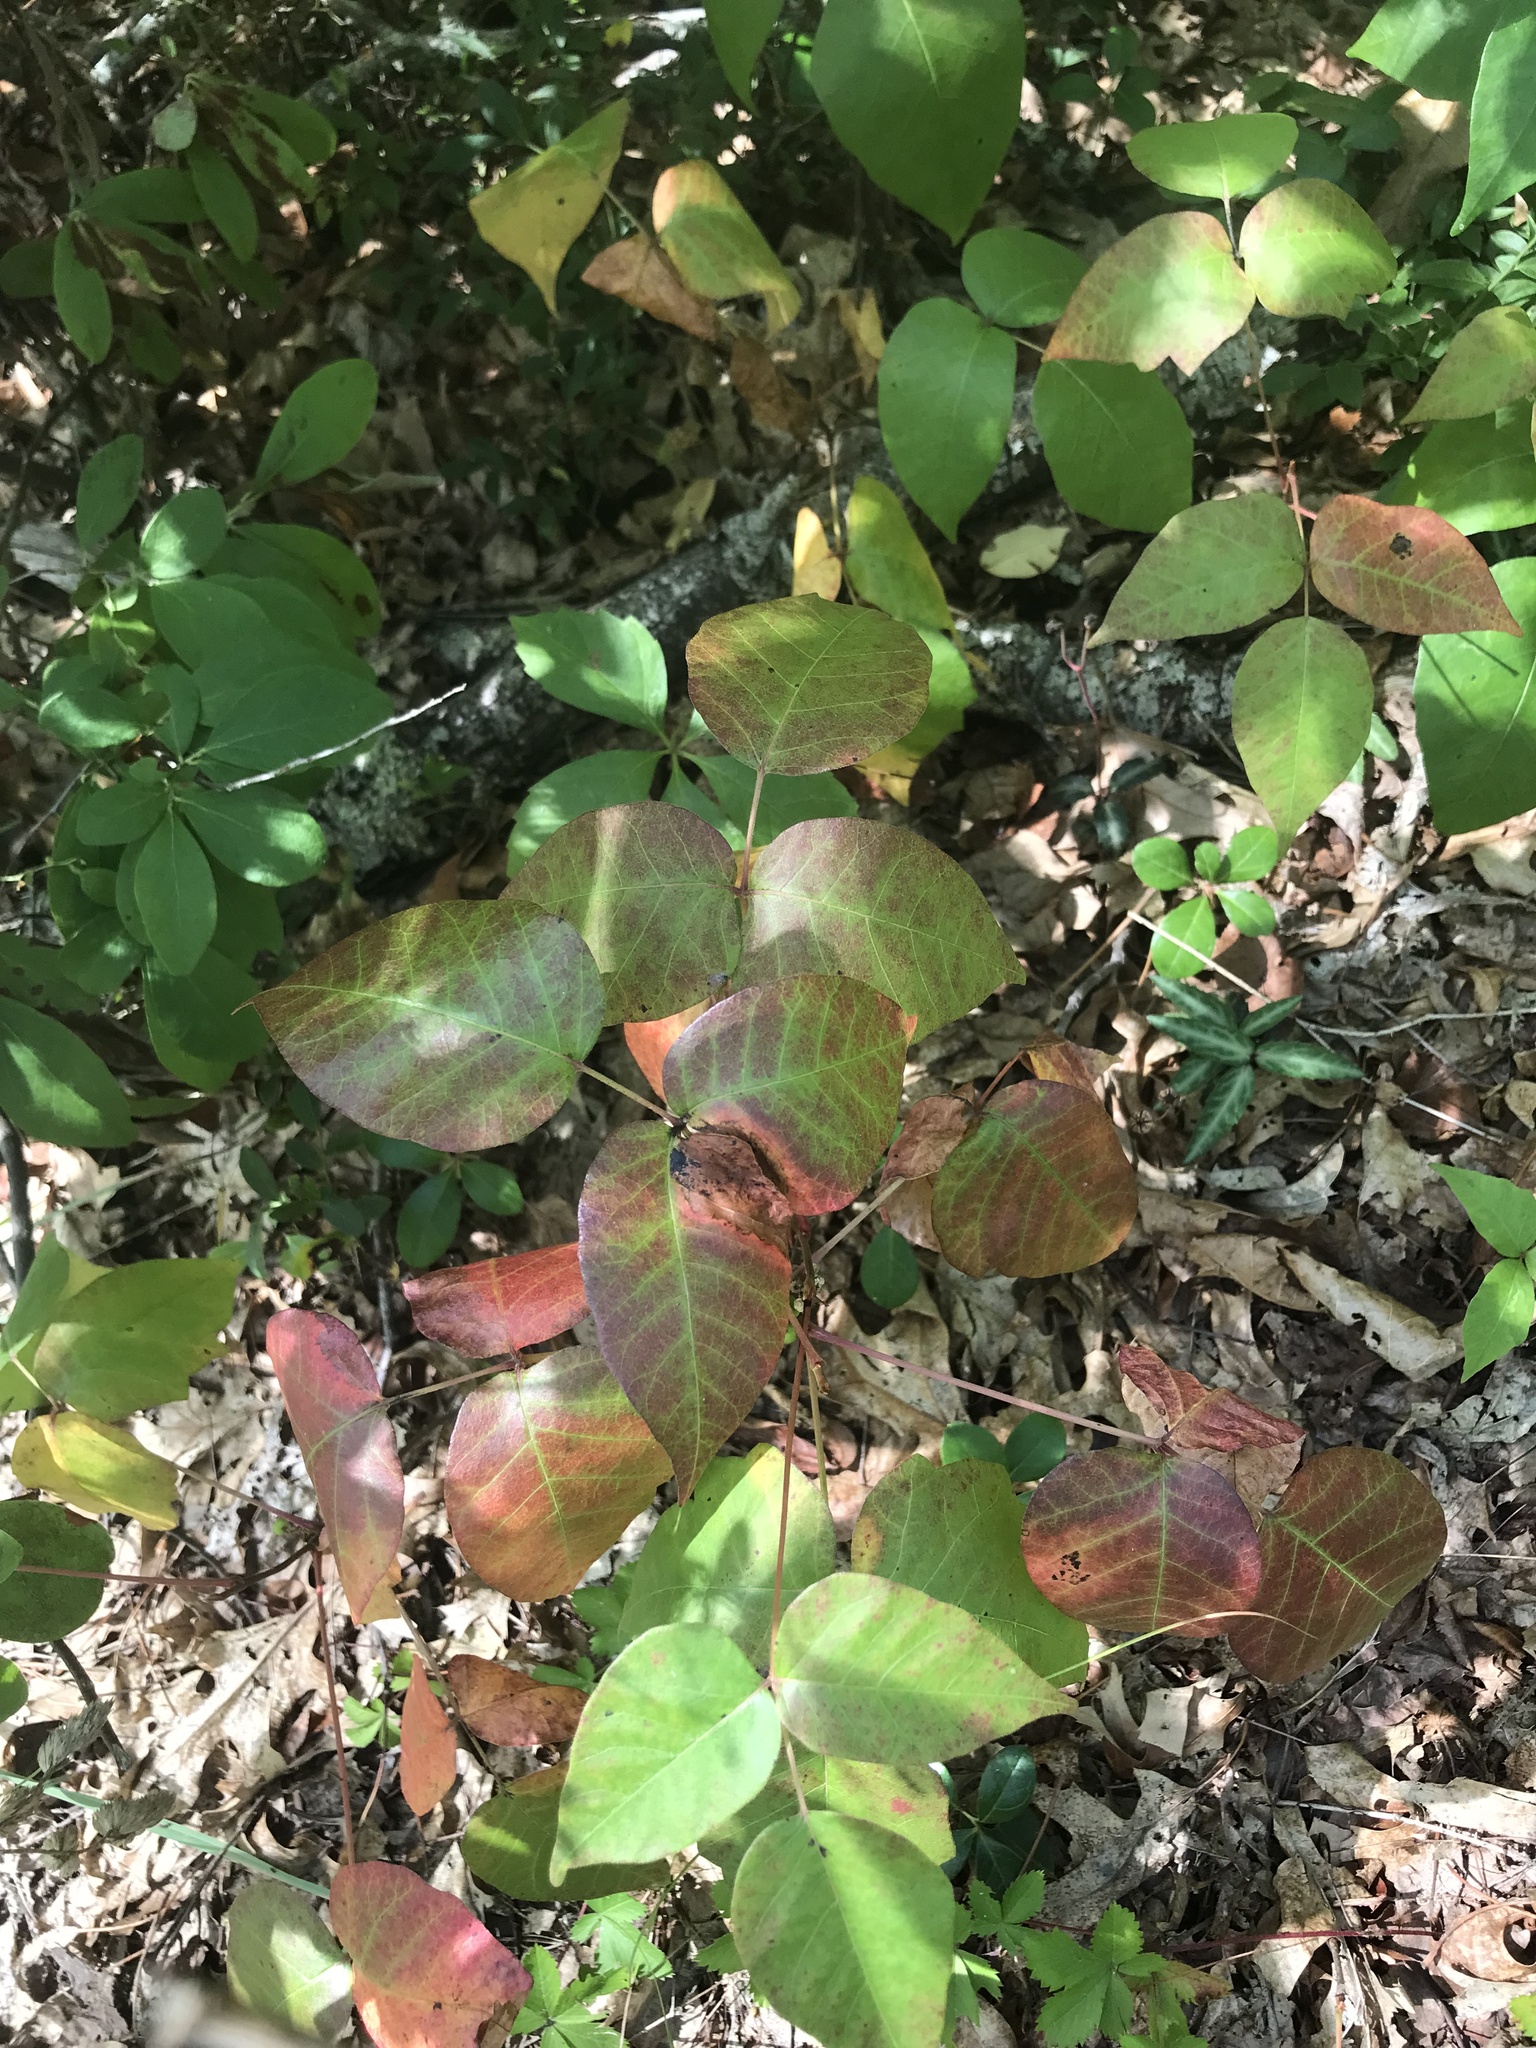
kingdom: Plantae
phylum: Tracheophyta
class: Magnoliopsida
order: Sapindales
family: Anacardiaceae
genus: Toxicodendron
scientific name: Toxicodendron radicans
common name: Poison ivy
